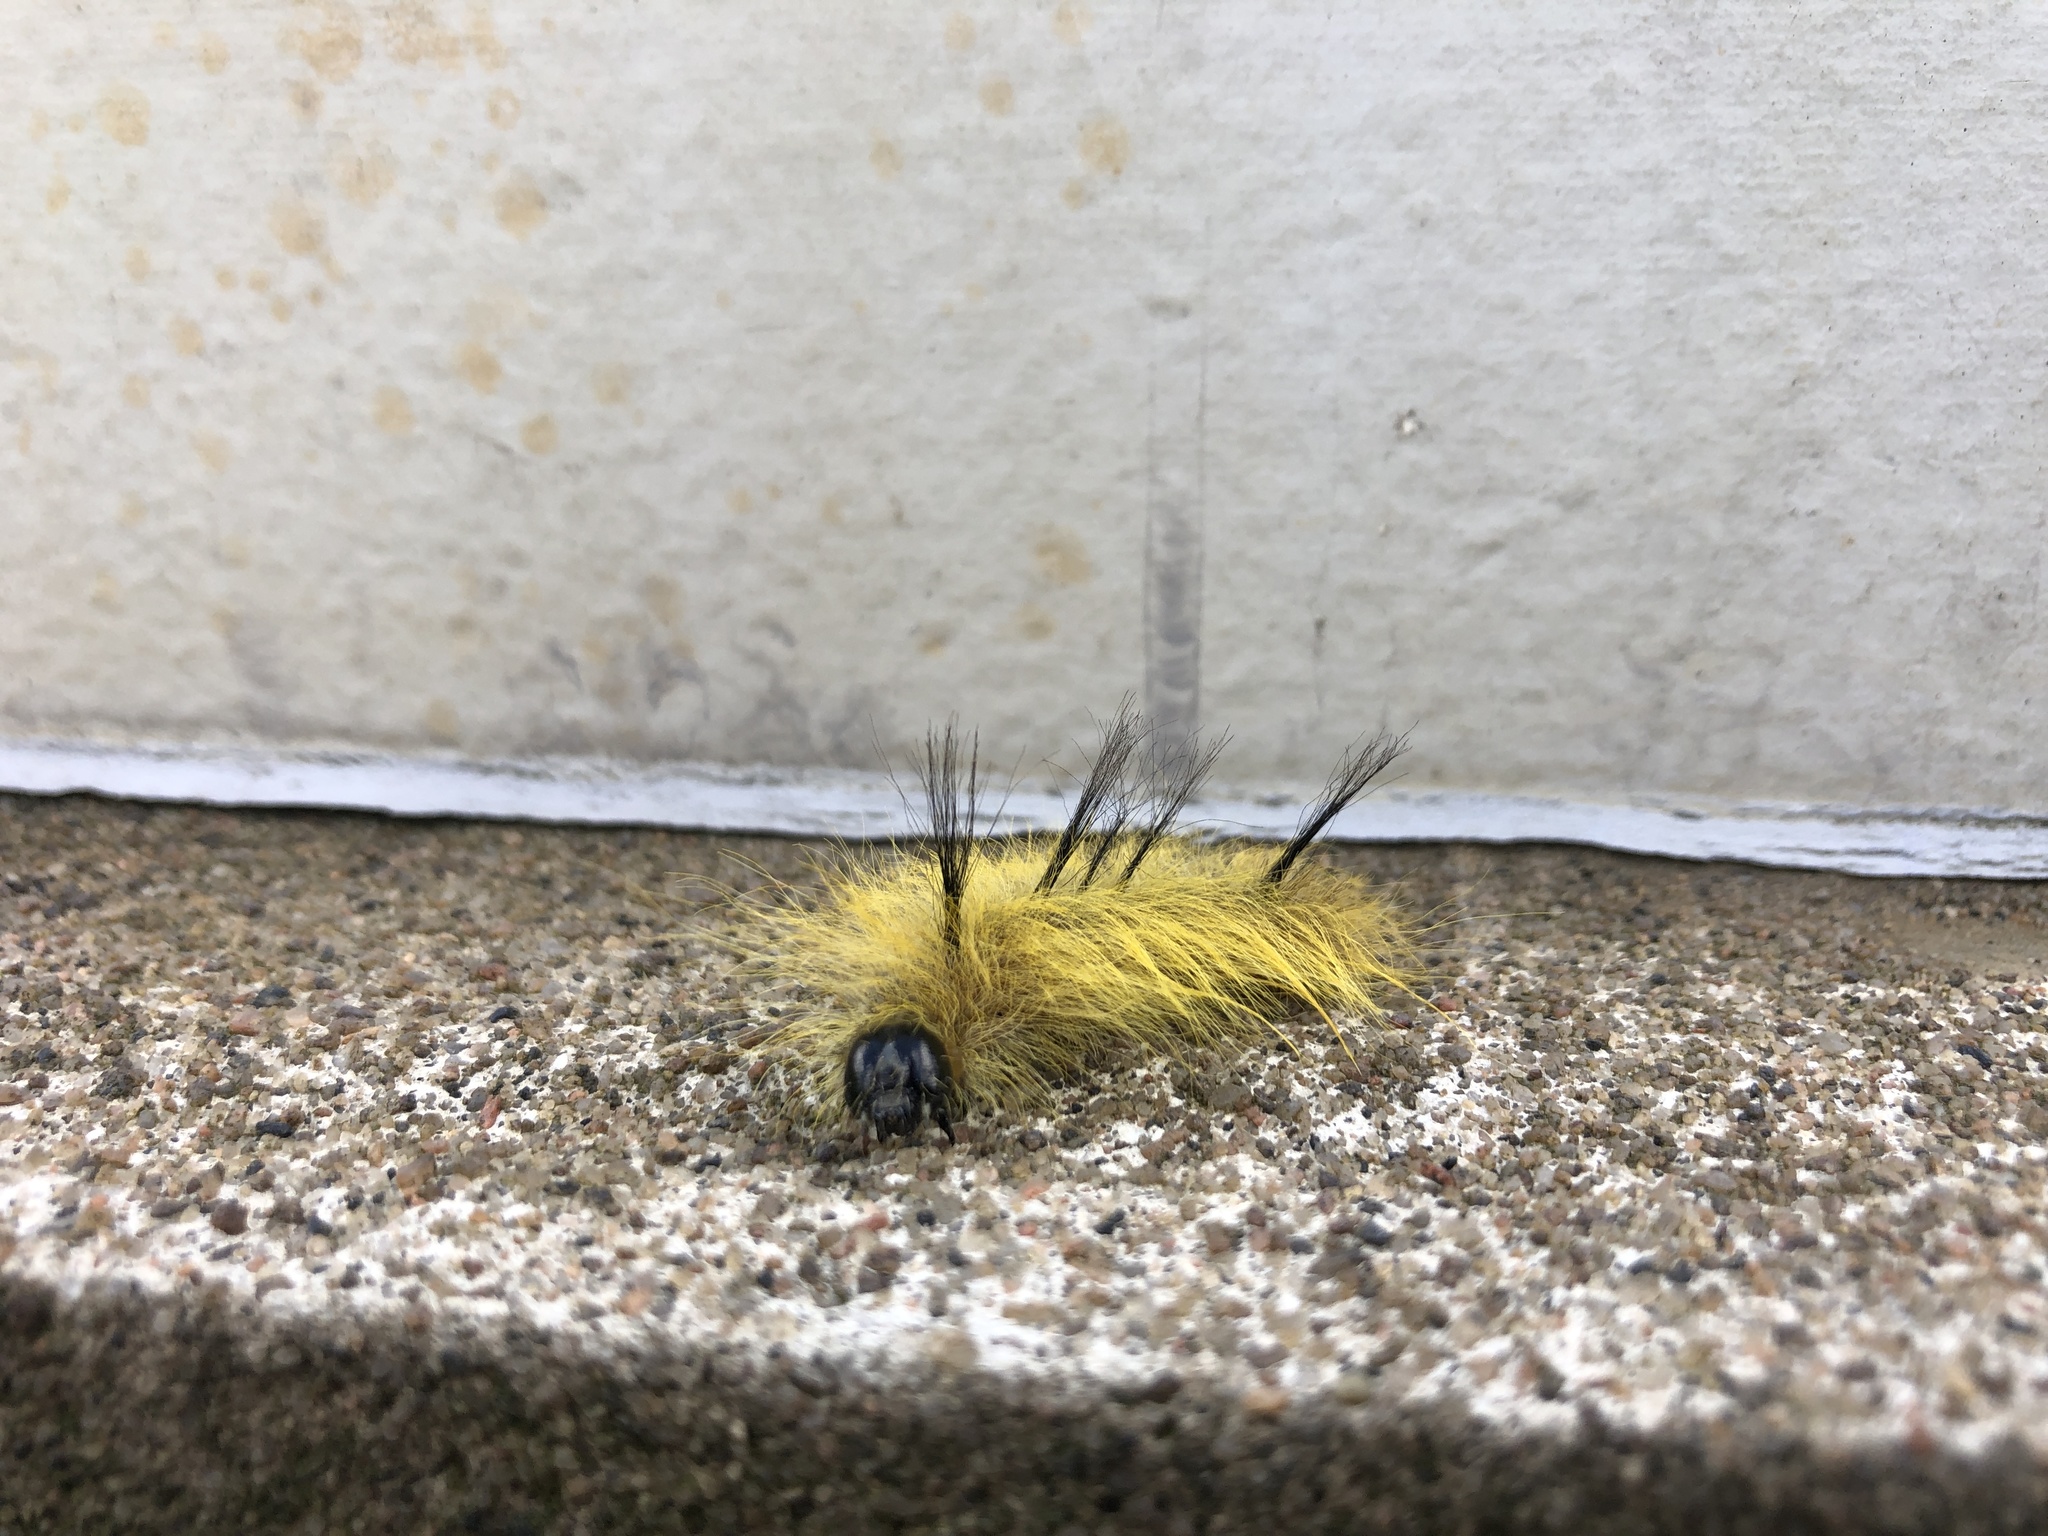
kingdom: Animalia
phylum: Arthropoda
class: Insecta
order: Lepidoptera
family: Noctuidae
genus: Acronicta
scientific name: Acronicta americana
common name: American dagger
